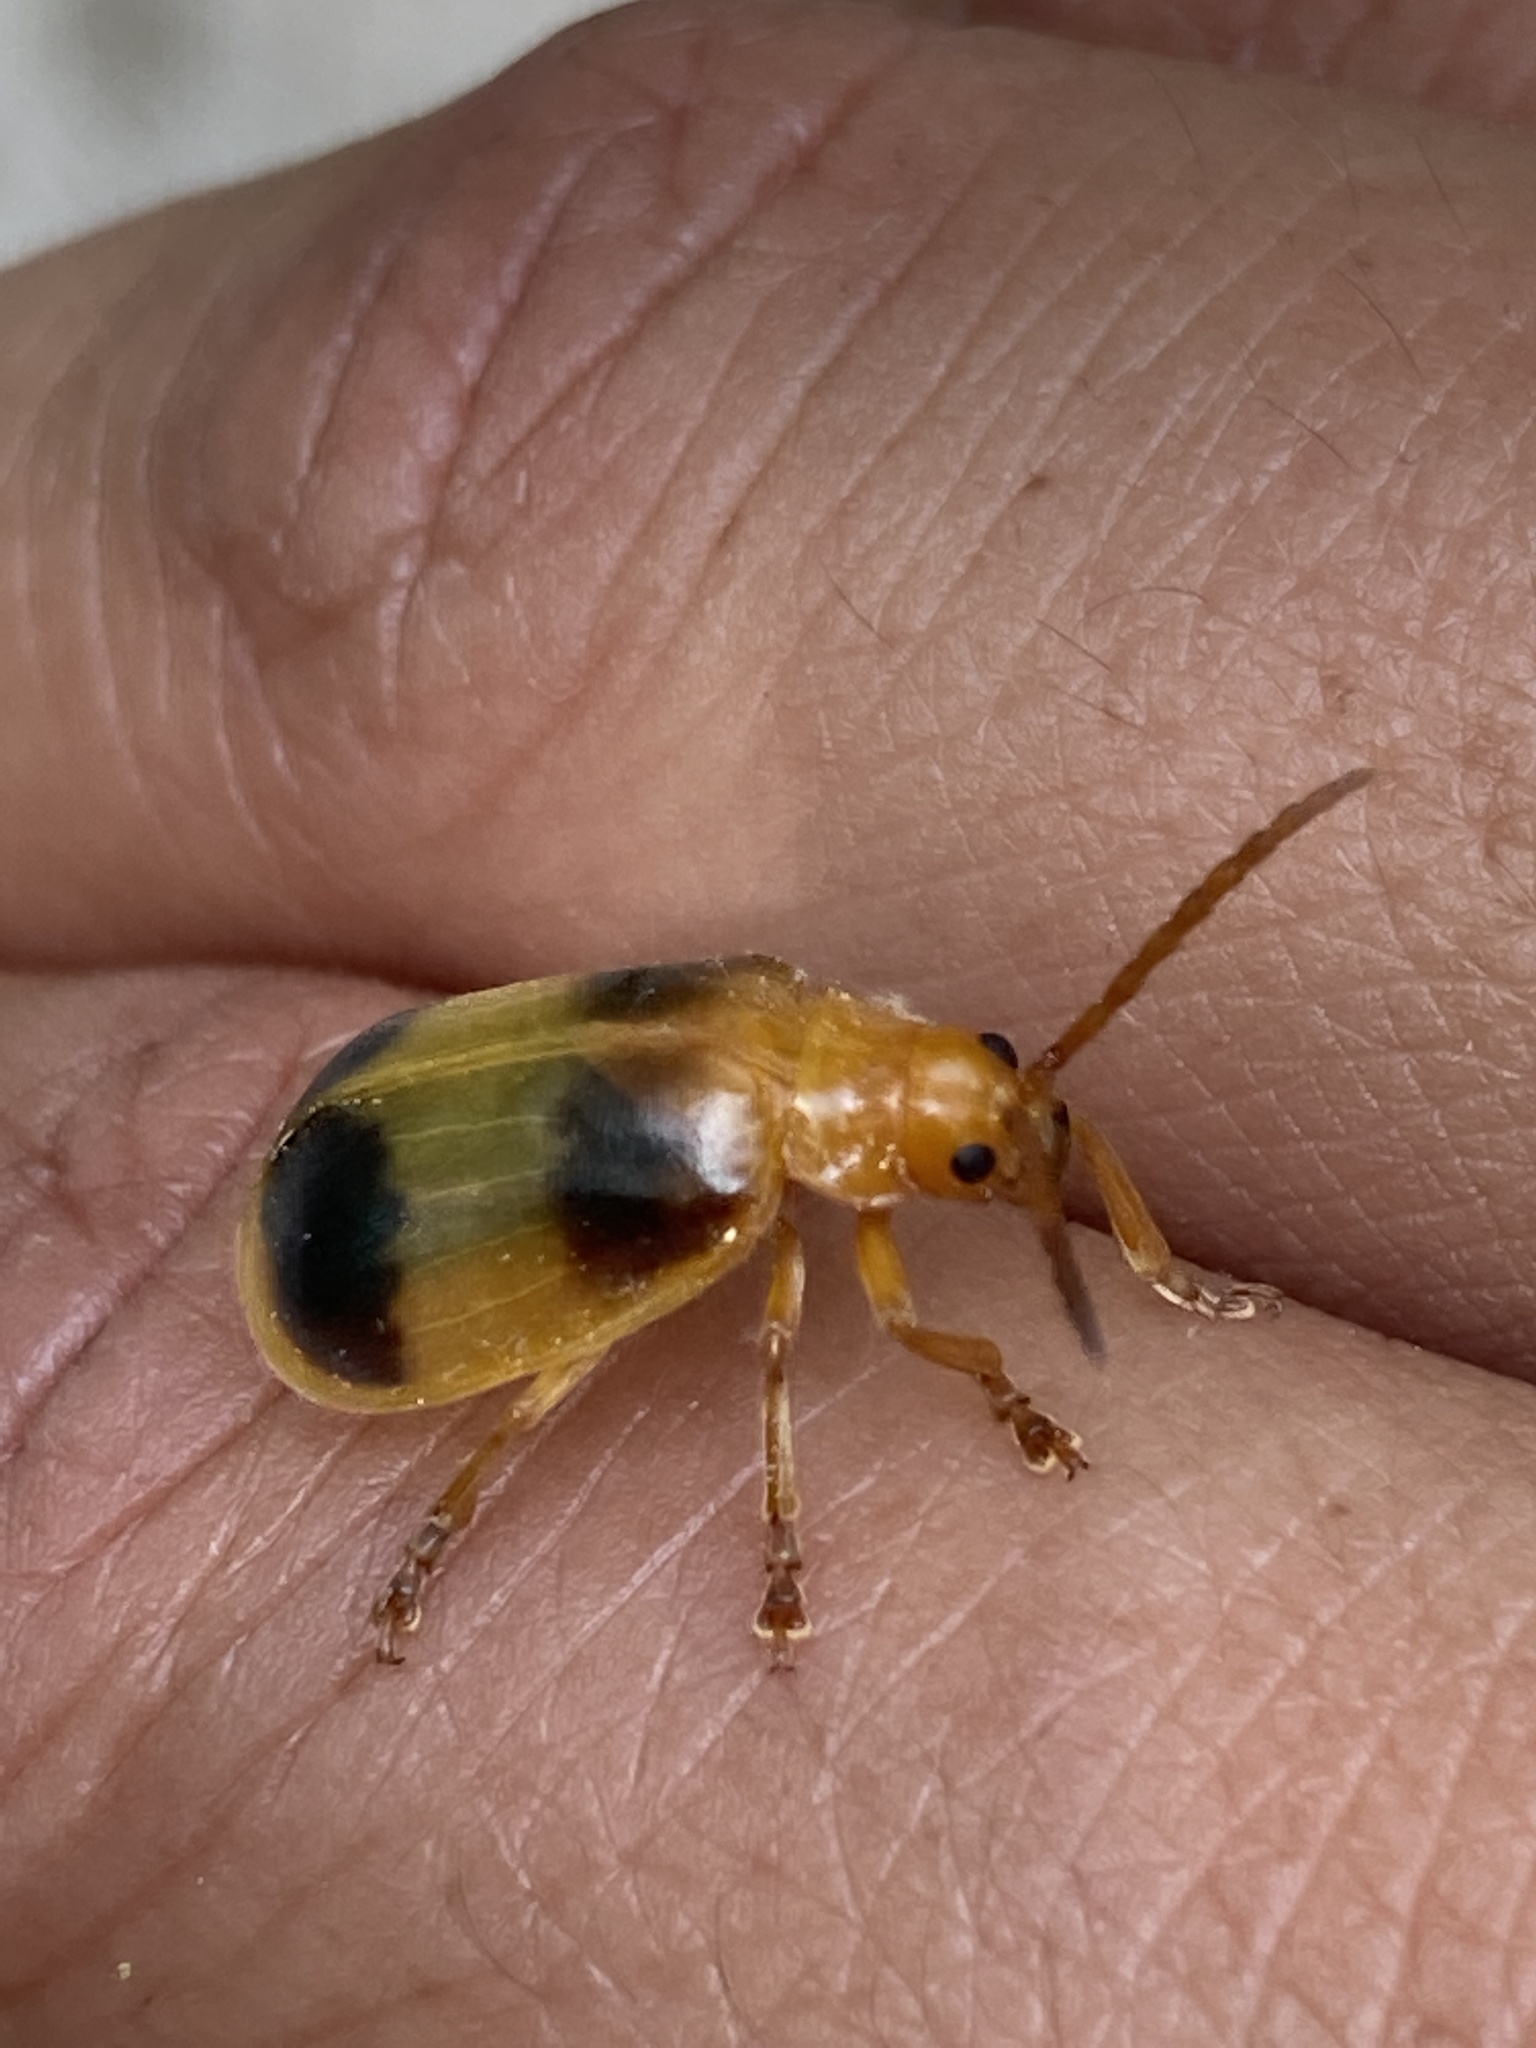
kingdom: Animalia
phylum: Arthropoda
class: Insecta
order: Coleoptera
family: Chrysomelidae
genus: Monocesta
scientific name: Monocesta coryli
